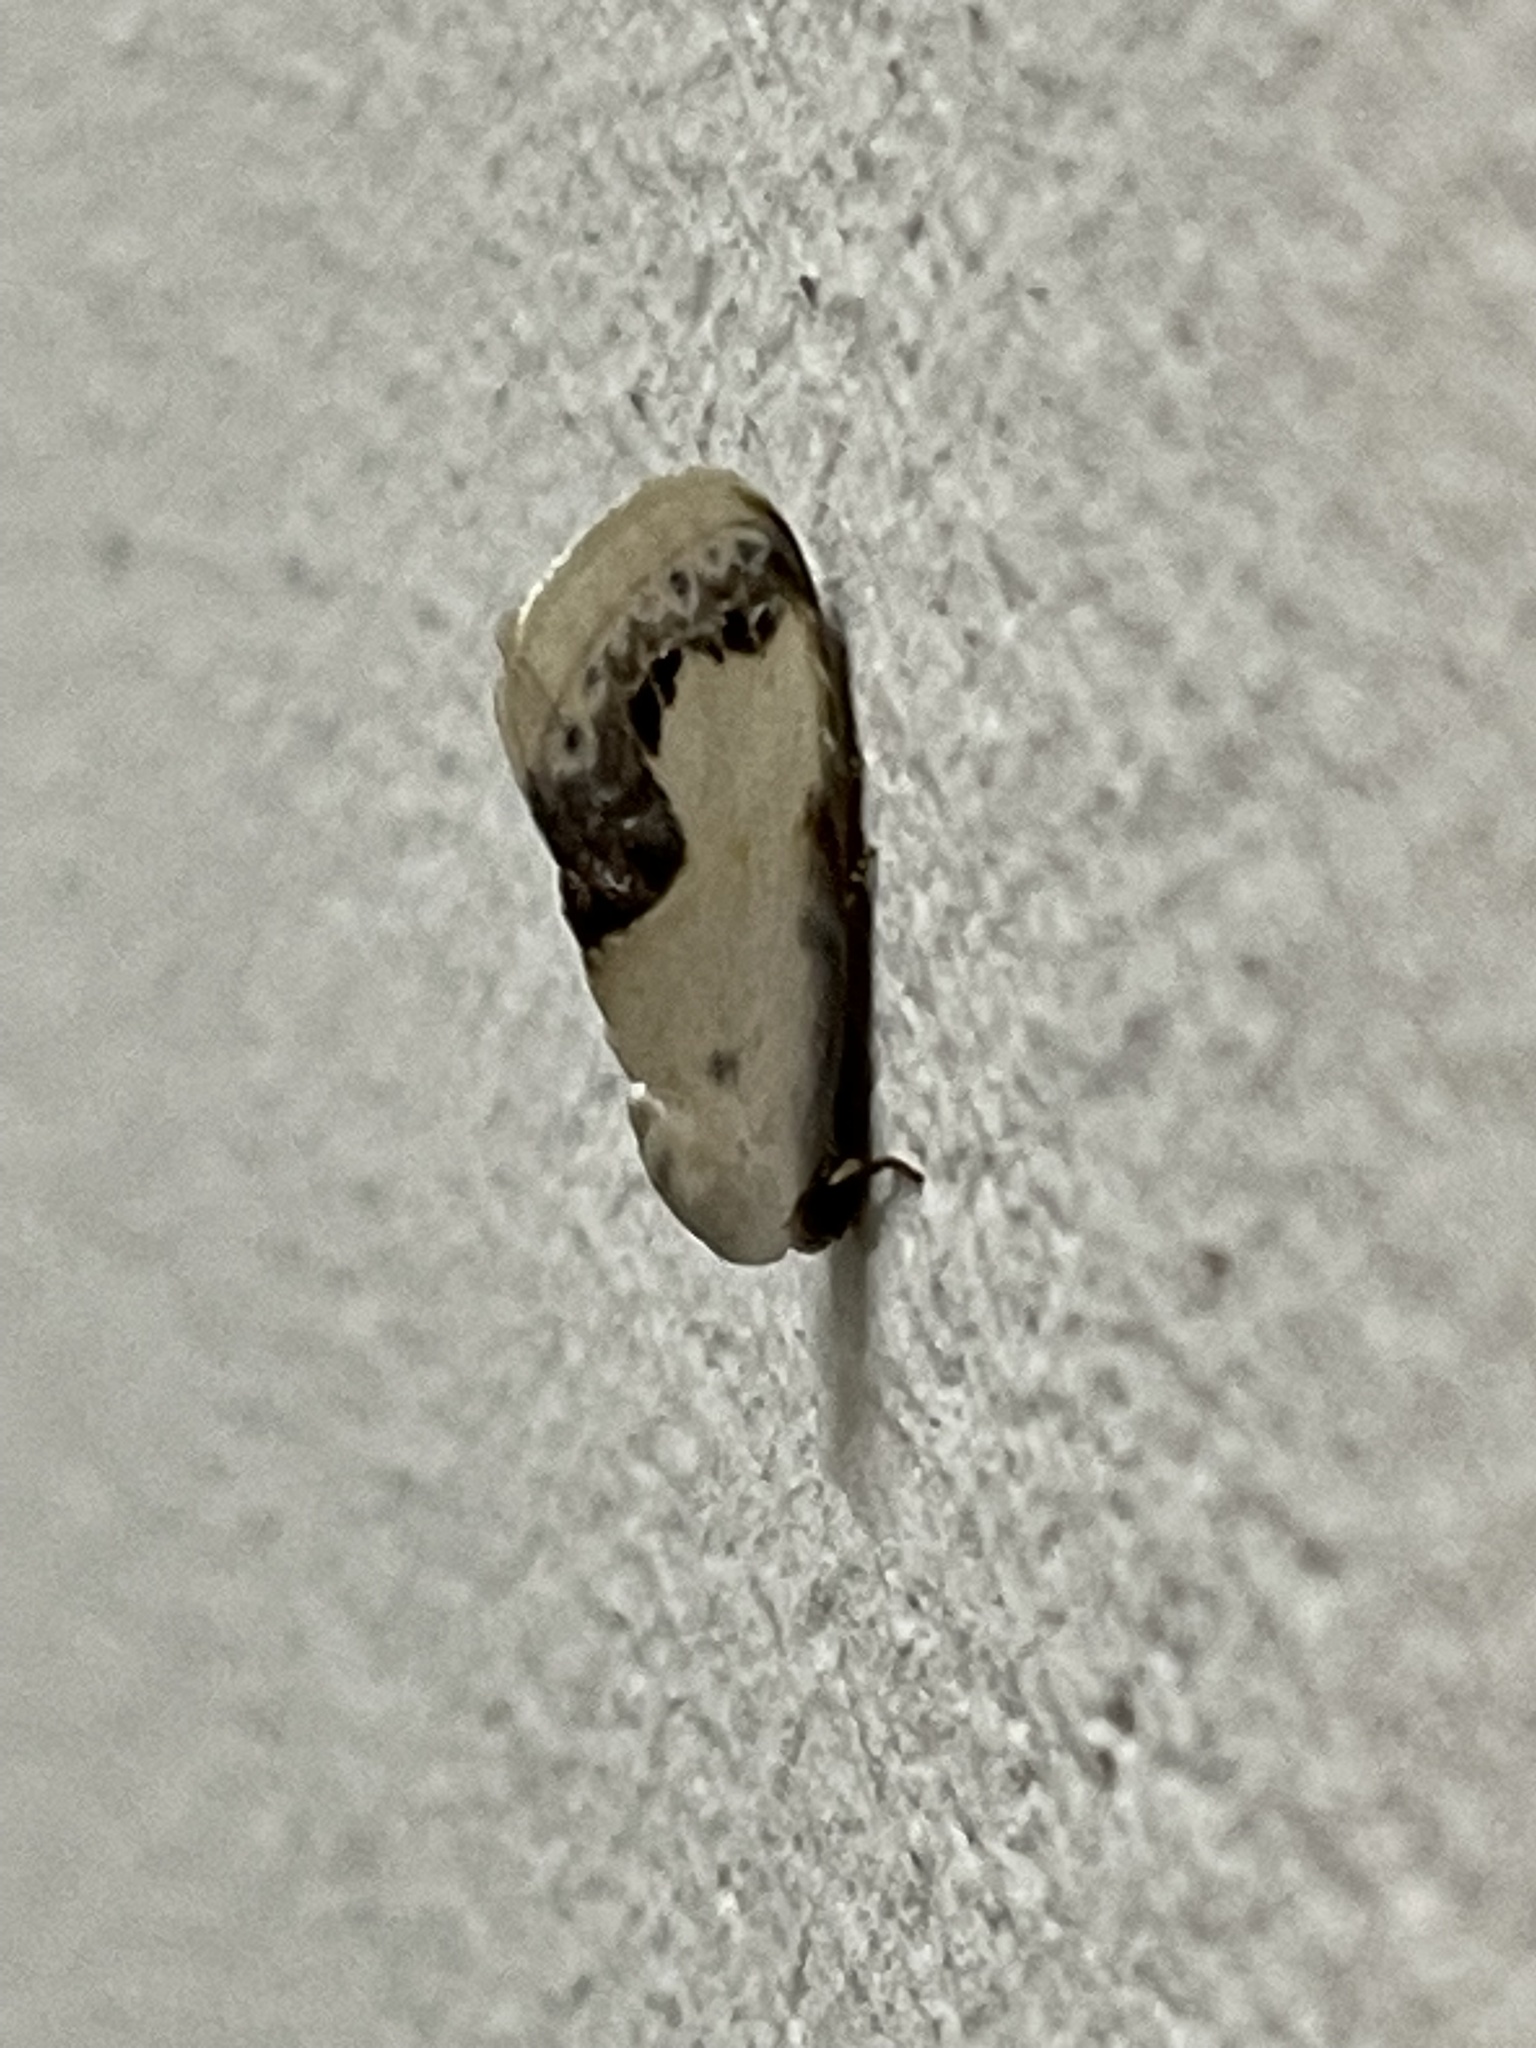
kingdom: Animalia
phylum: Arthropoda
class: Insecta
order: Lepidoptera
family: Nolidae
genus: Negeta
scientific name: Negeta luminosa
